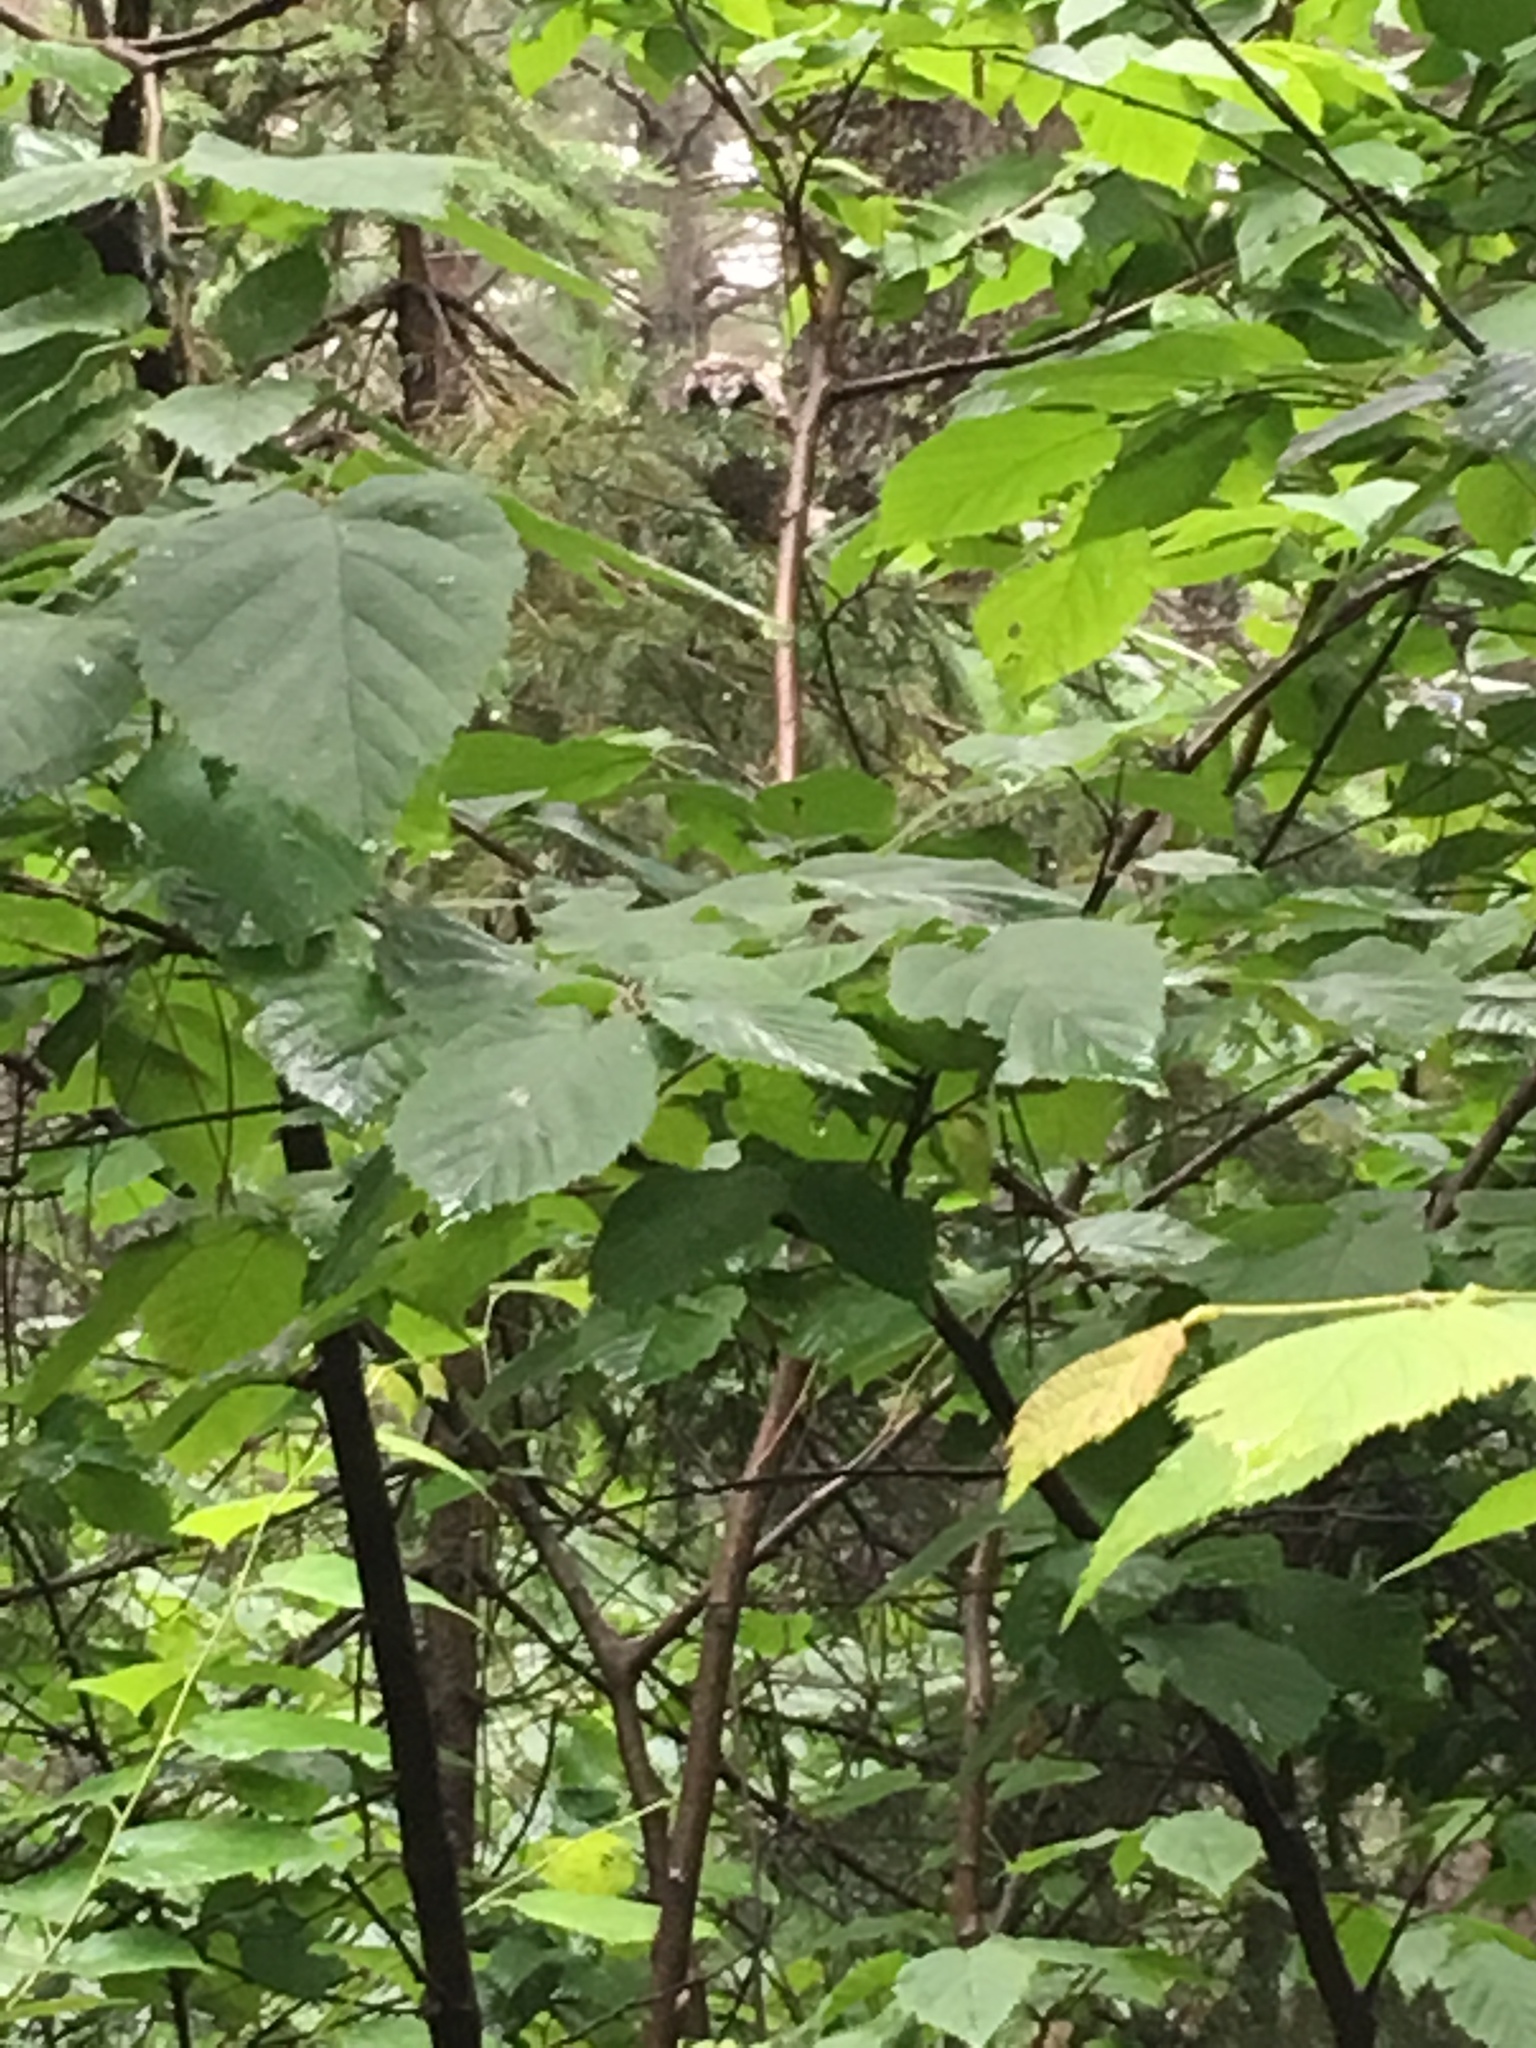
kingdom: Animalia
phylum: Chordata
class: Aves
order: Strigiformes
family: Strigidae
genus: Asio
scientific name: Asio otus
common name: Long-eared owl
